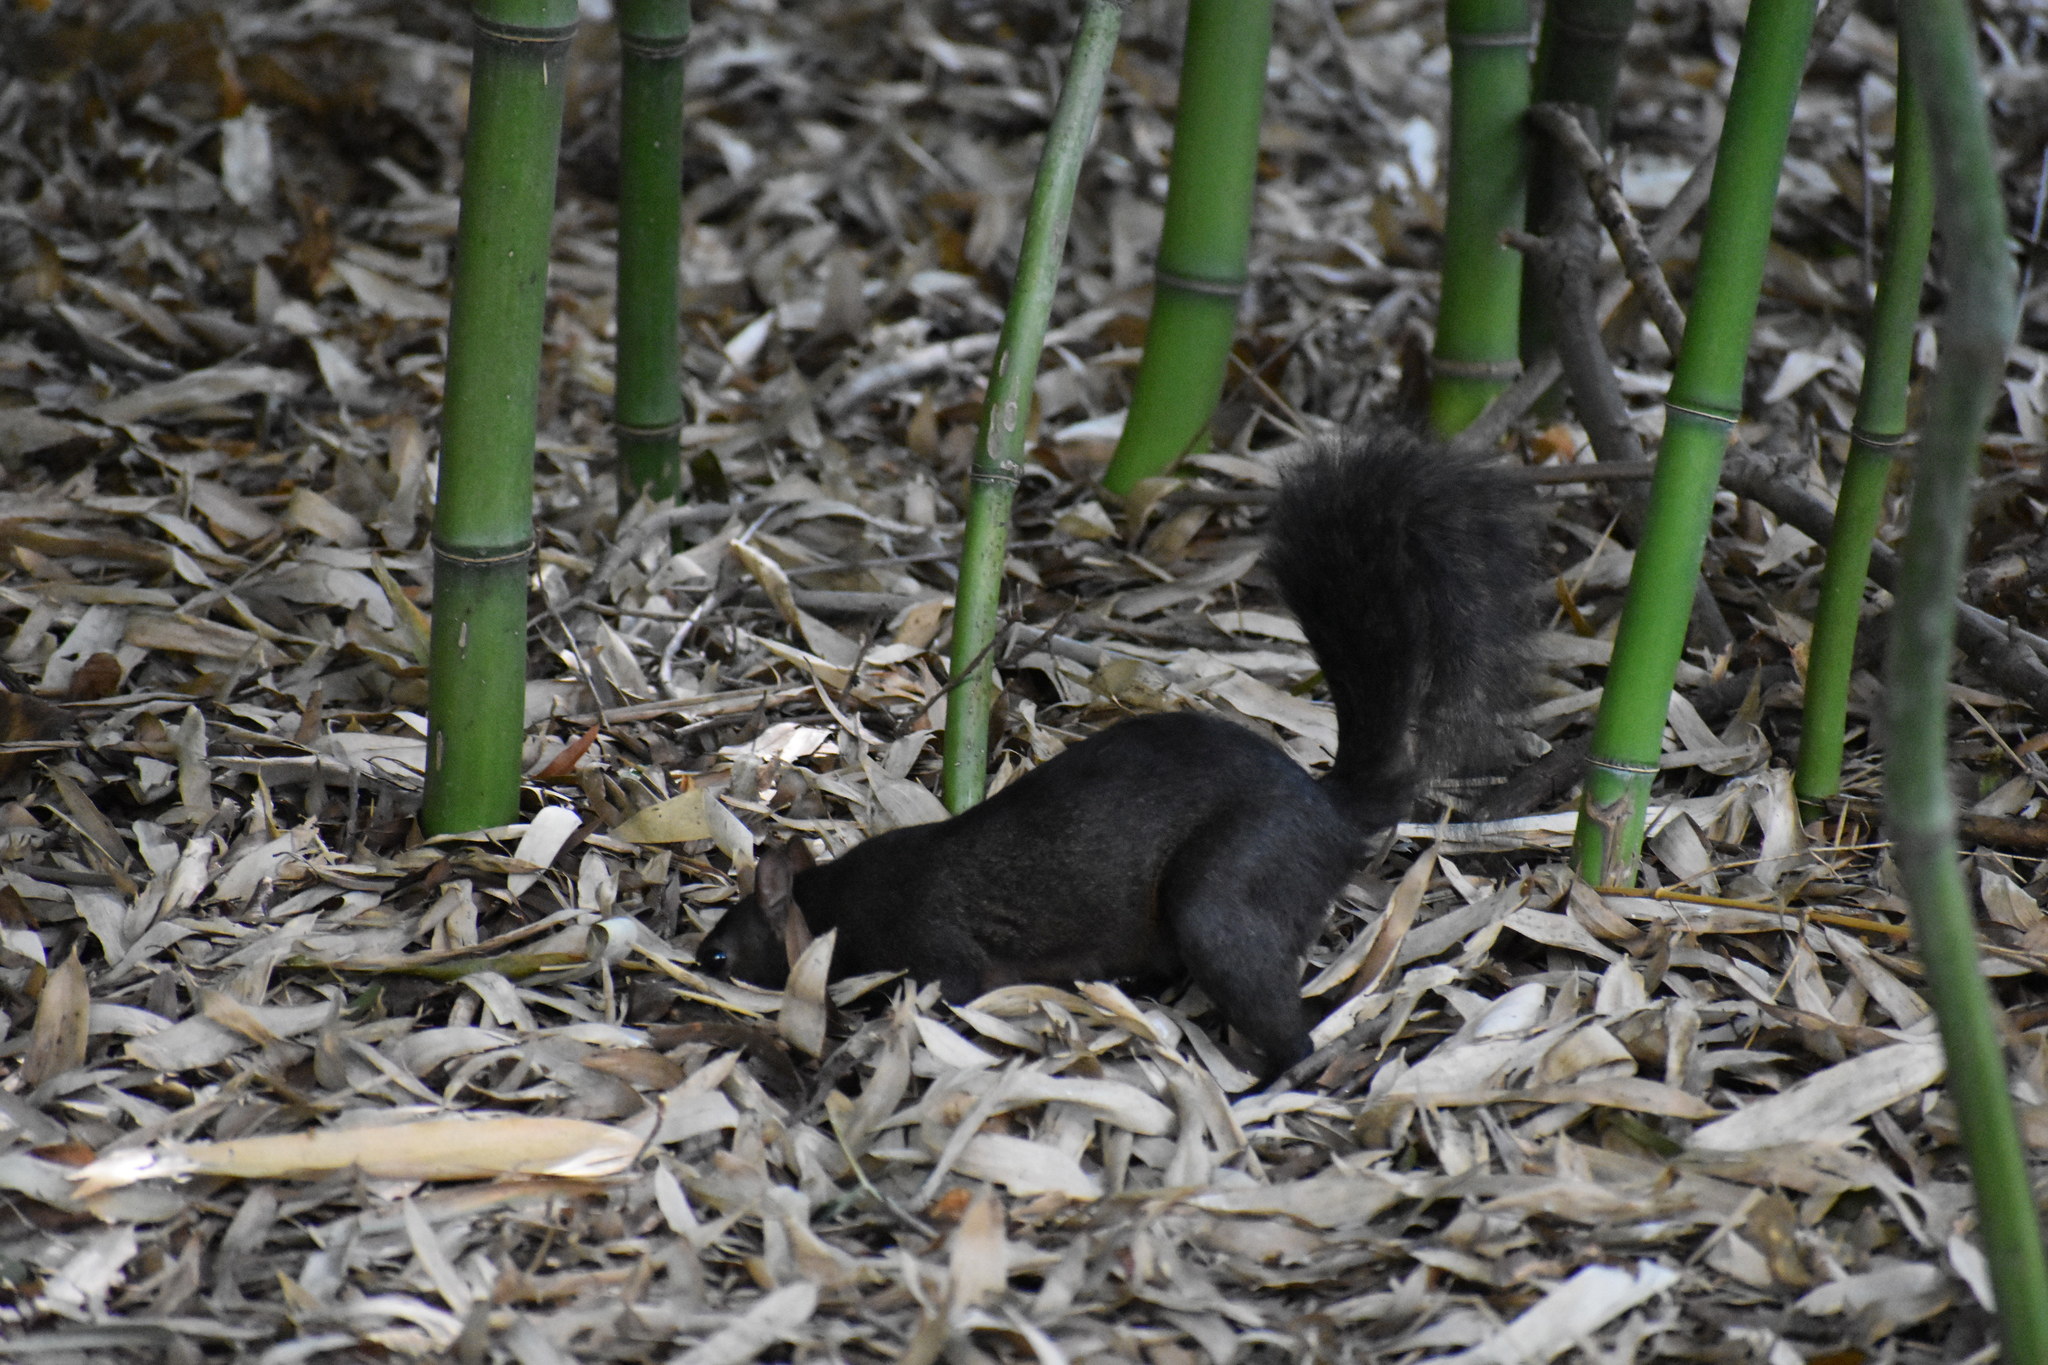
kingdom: Animalia
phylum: Chordata
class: Mammalia
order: Rodentia
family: Sciuridae
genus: Sciurus
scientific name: Sciurus carolinensis
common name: Eastern gray squirrel
